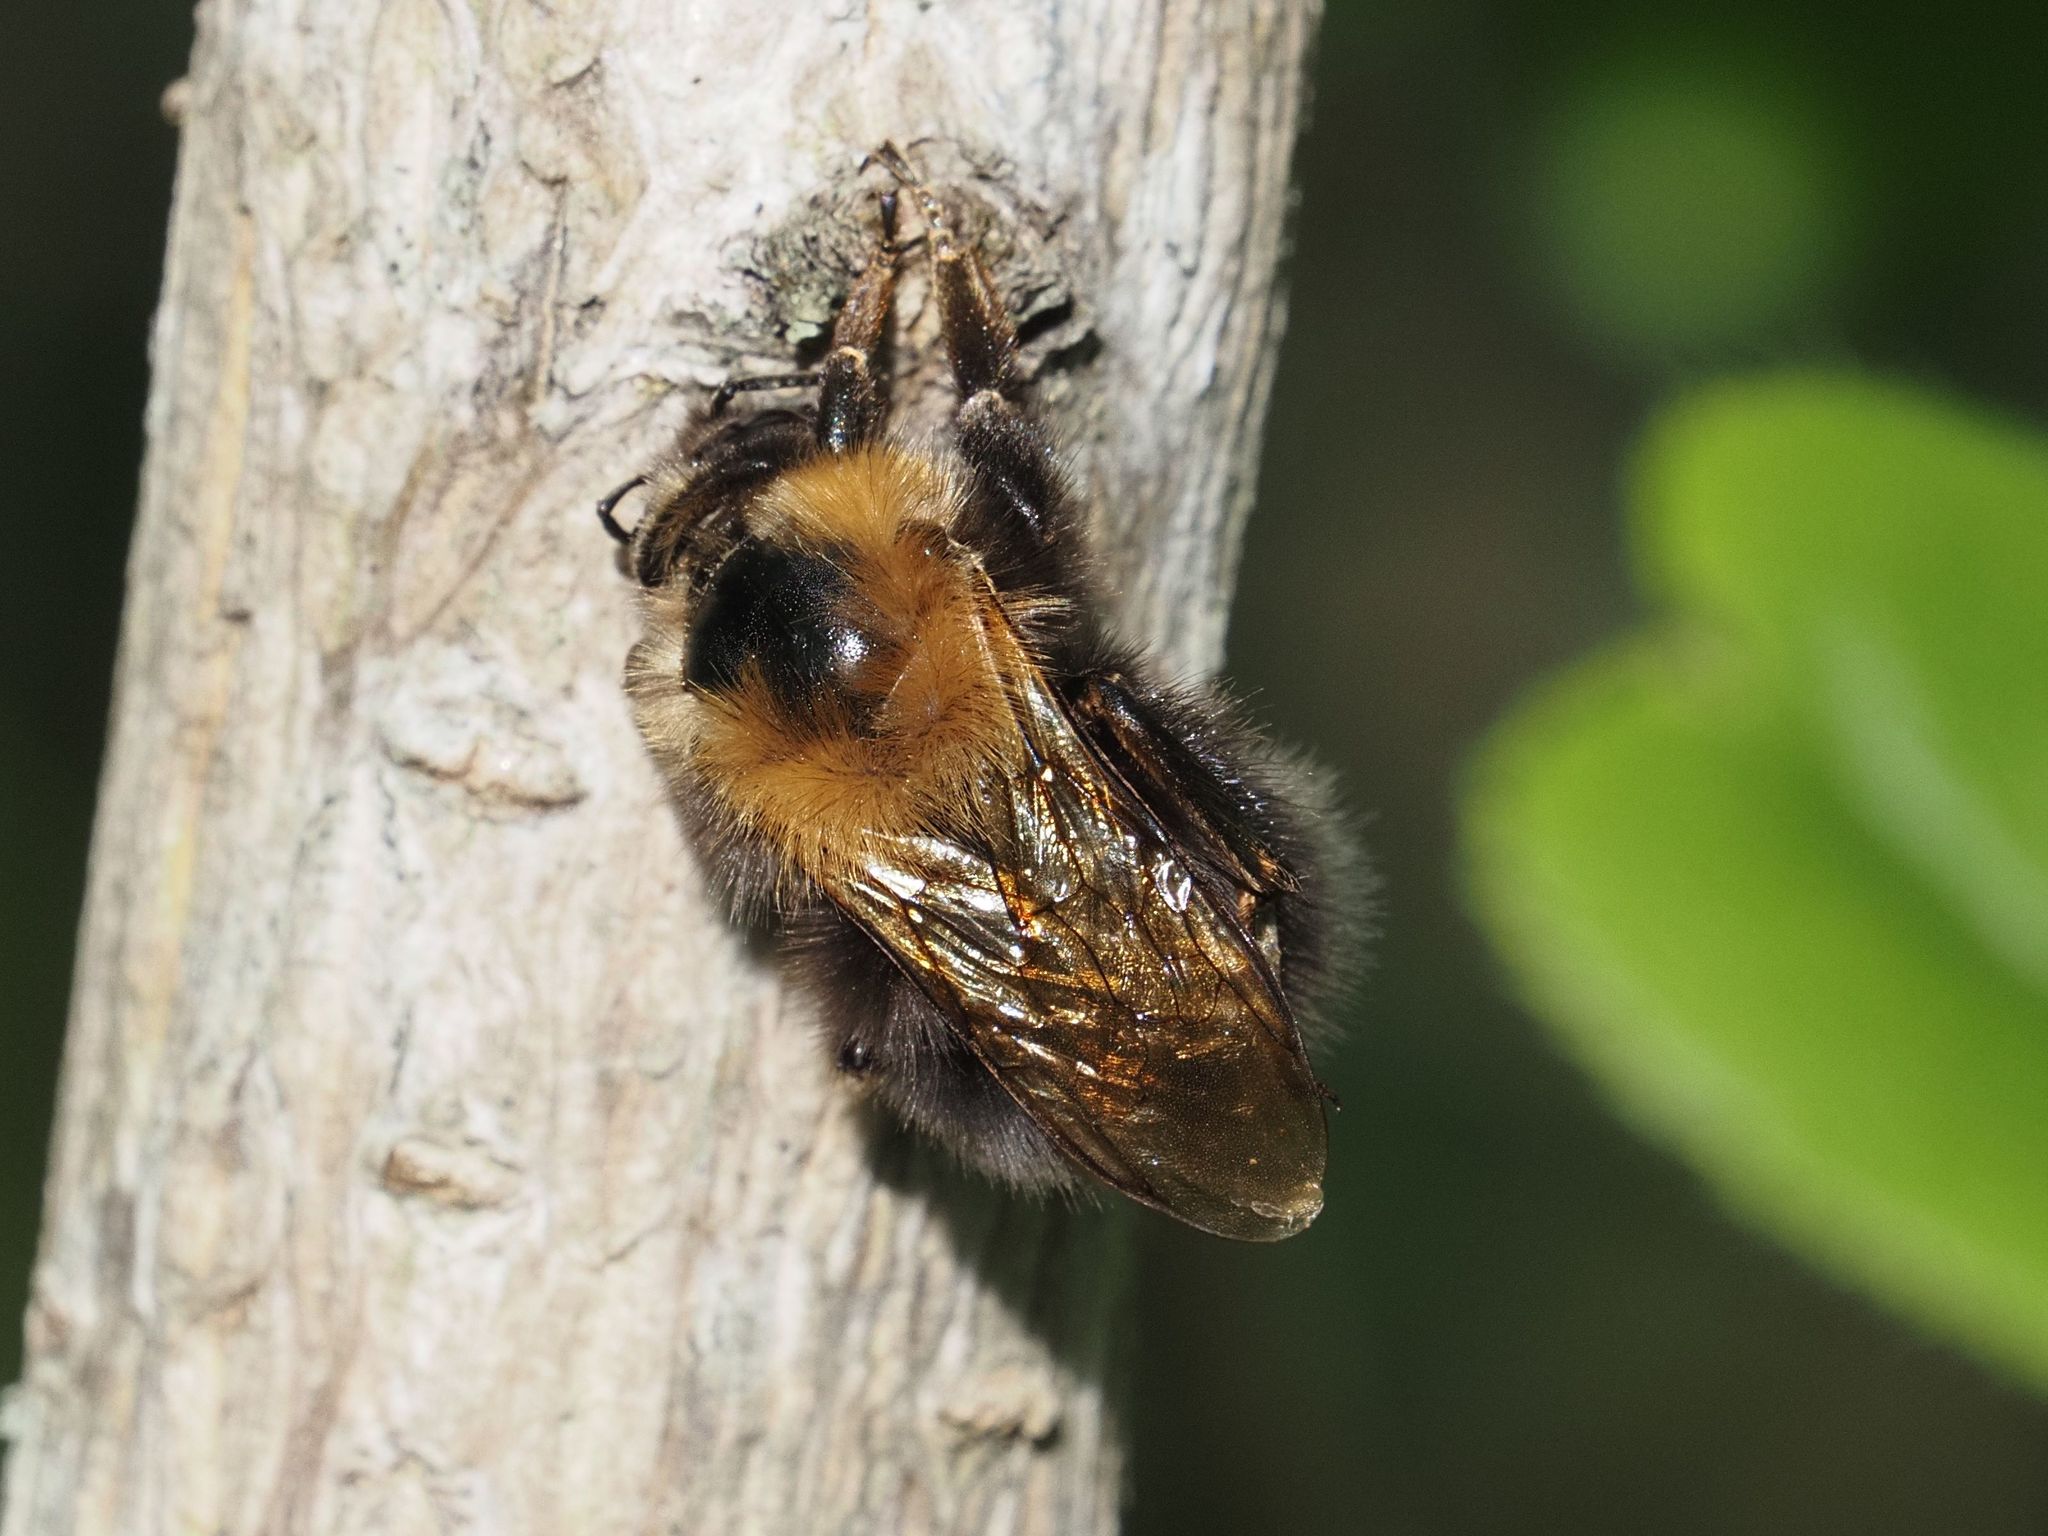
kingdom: Animalia
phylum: Arthropoda
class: Insecta
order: Hymenoptera
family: Apidae
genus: Bombus
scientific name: Bombus hypnorum
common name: New garden bumblebee
